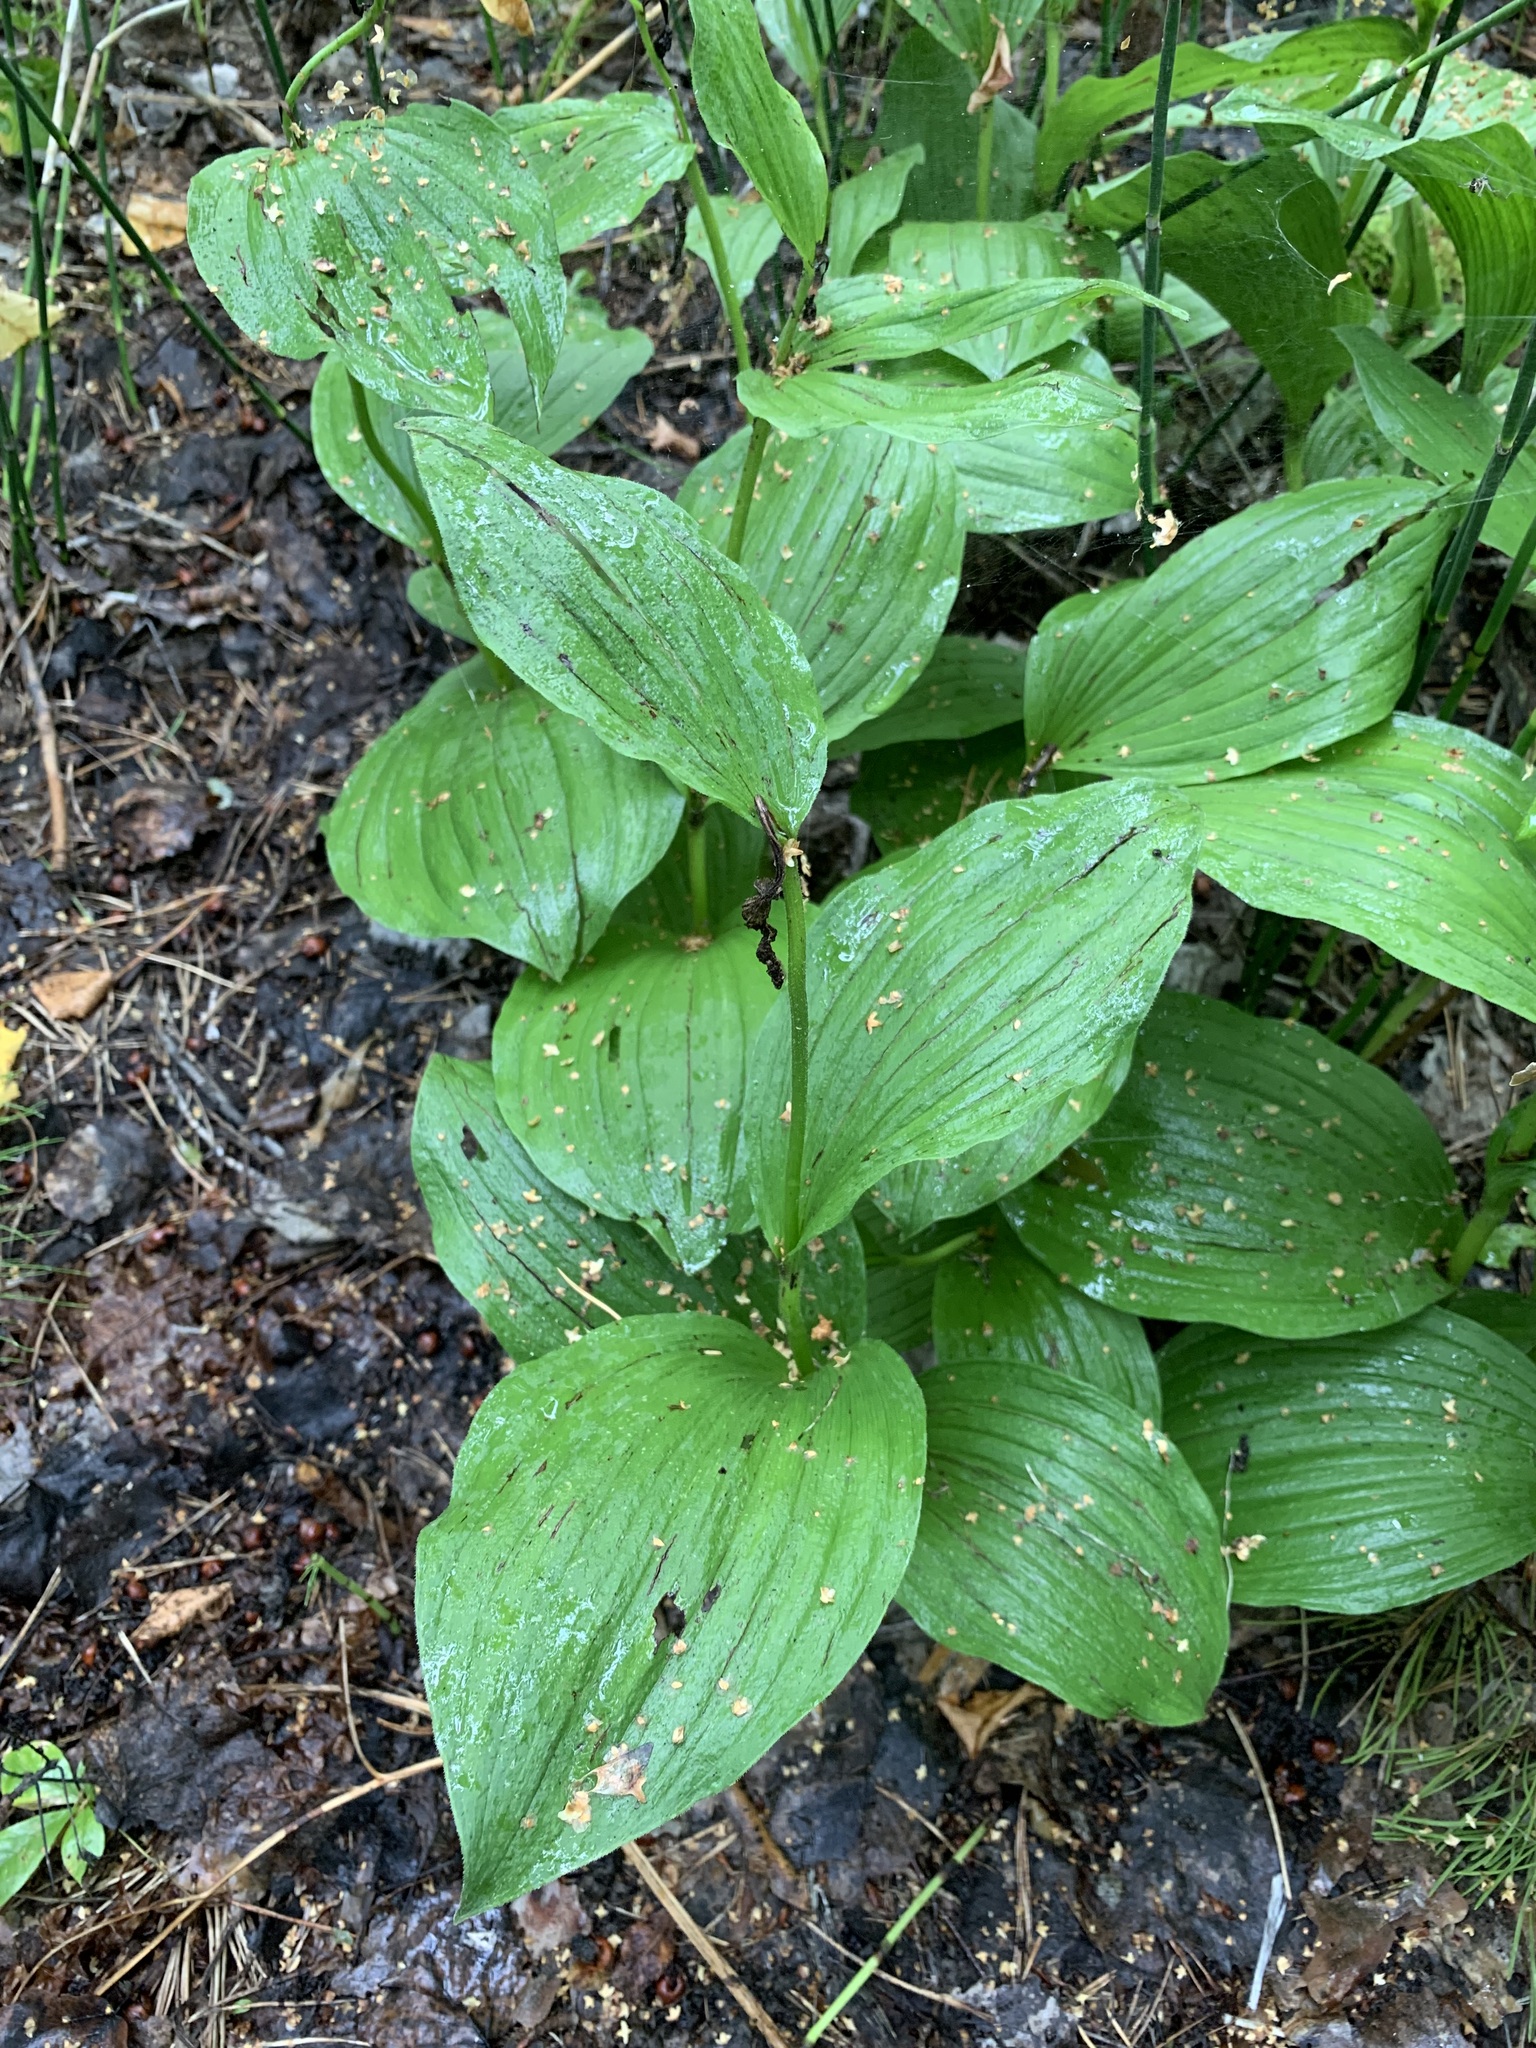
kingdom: Plantae
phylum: Tracheophyta
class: Liliopsida
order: Asparagales
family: Orchidaceae
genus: Cypripedium
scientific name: Cypripedium calceolus
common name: Lady's-slipper
